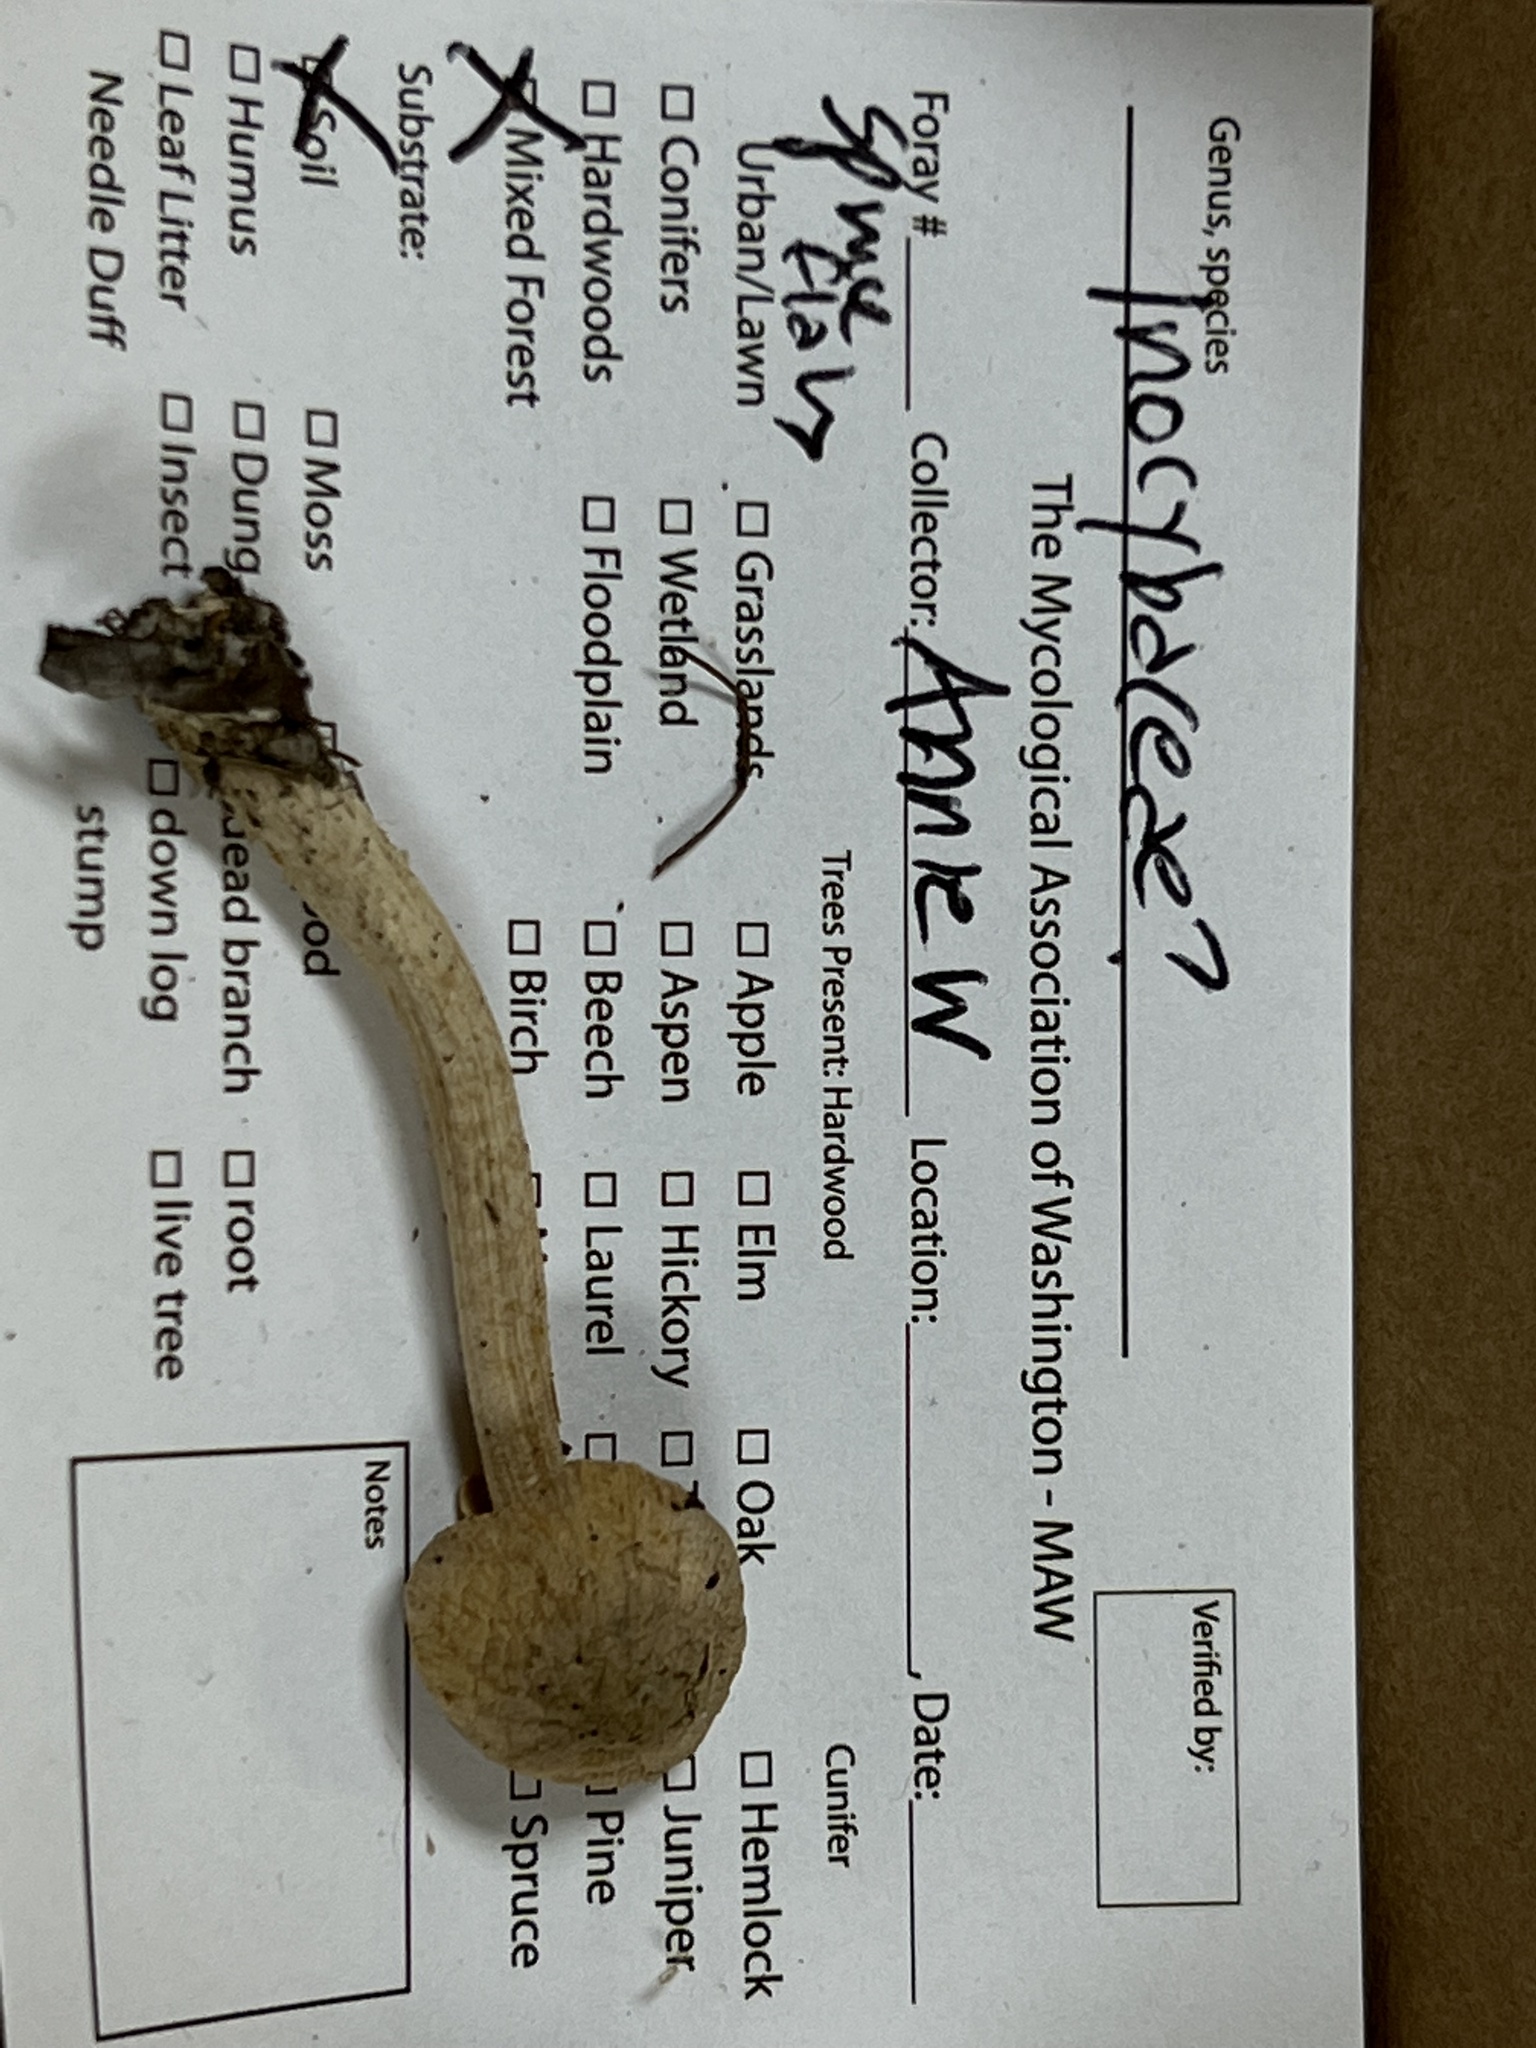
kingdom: Fungi
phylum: Basidiomycota
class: Agaricomycetes
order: Agaricales
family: Inocybaceae
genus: Inocybe
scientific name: Inocybe sindonia
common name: Beige fibrecap
